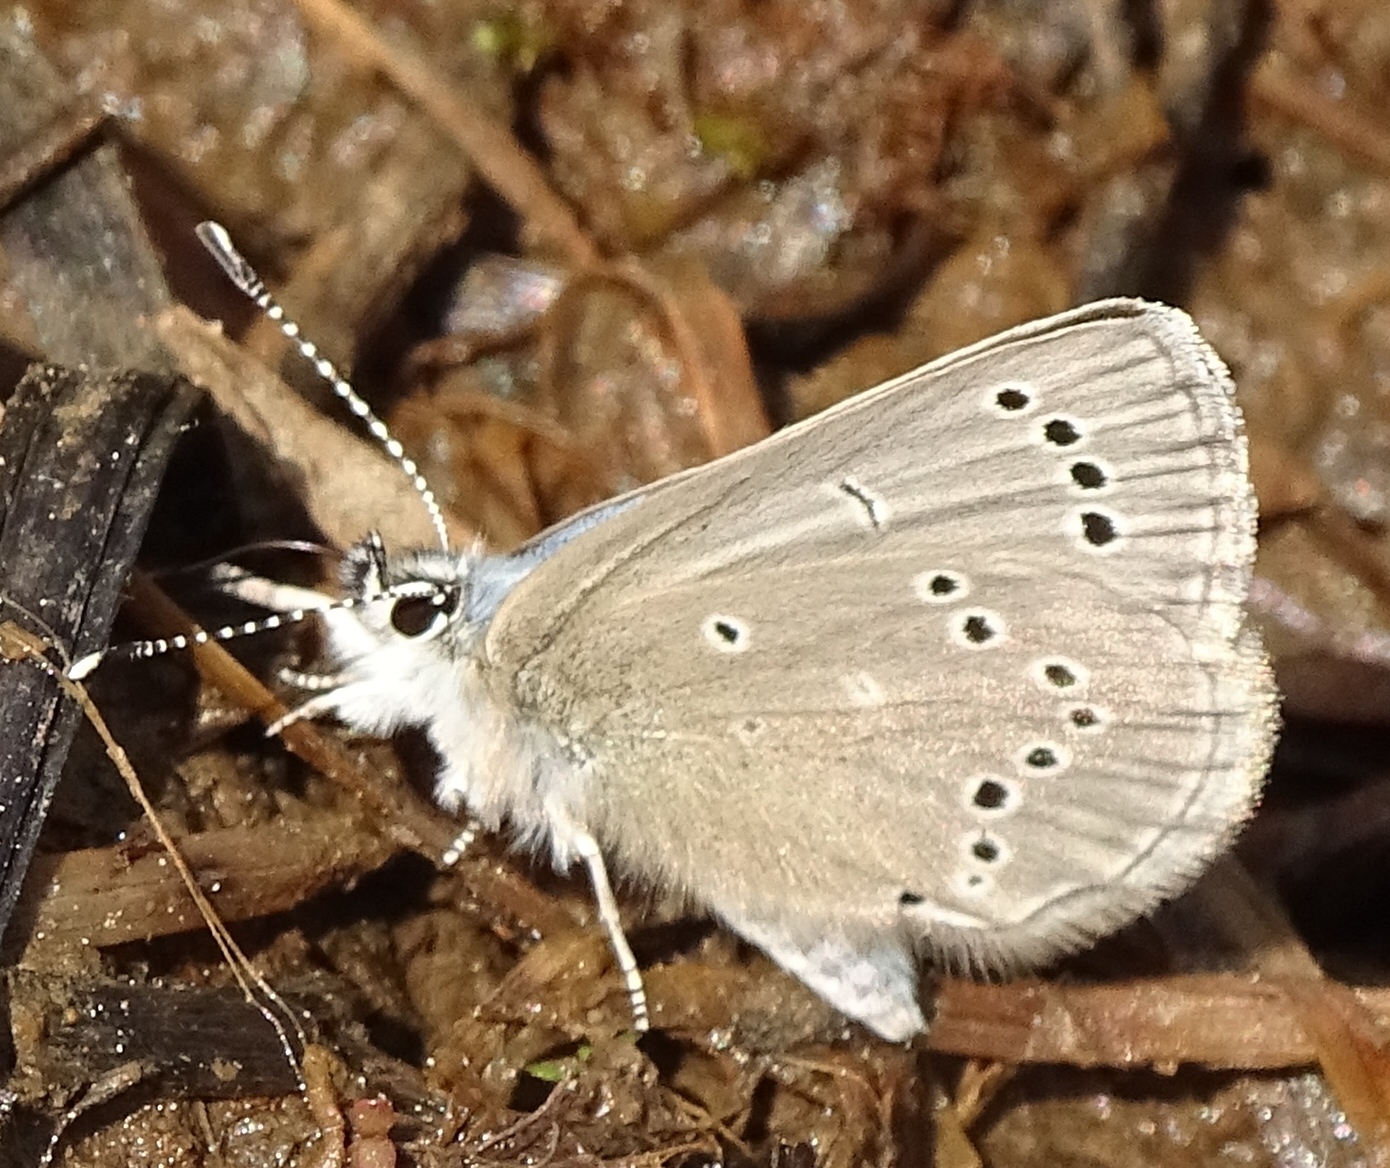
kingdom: Animalia
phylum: Arthropoda
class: Insecta
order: Lepidoptera
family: Lycaenidae
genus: Glaucopsyche
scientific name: Glaucopsyche lygdamus
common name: Silvery blue
